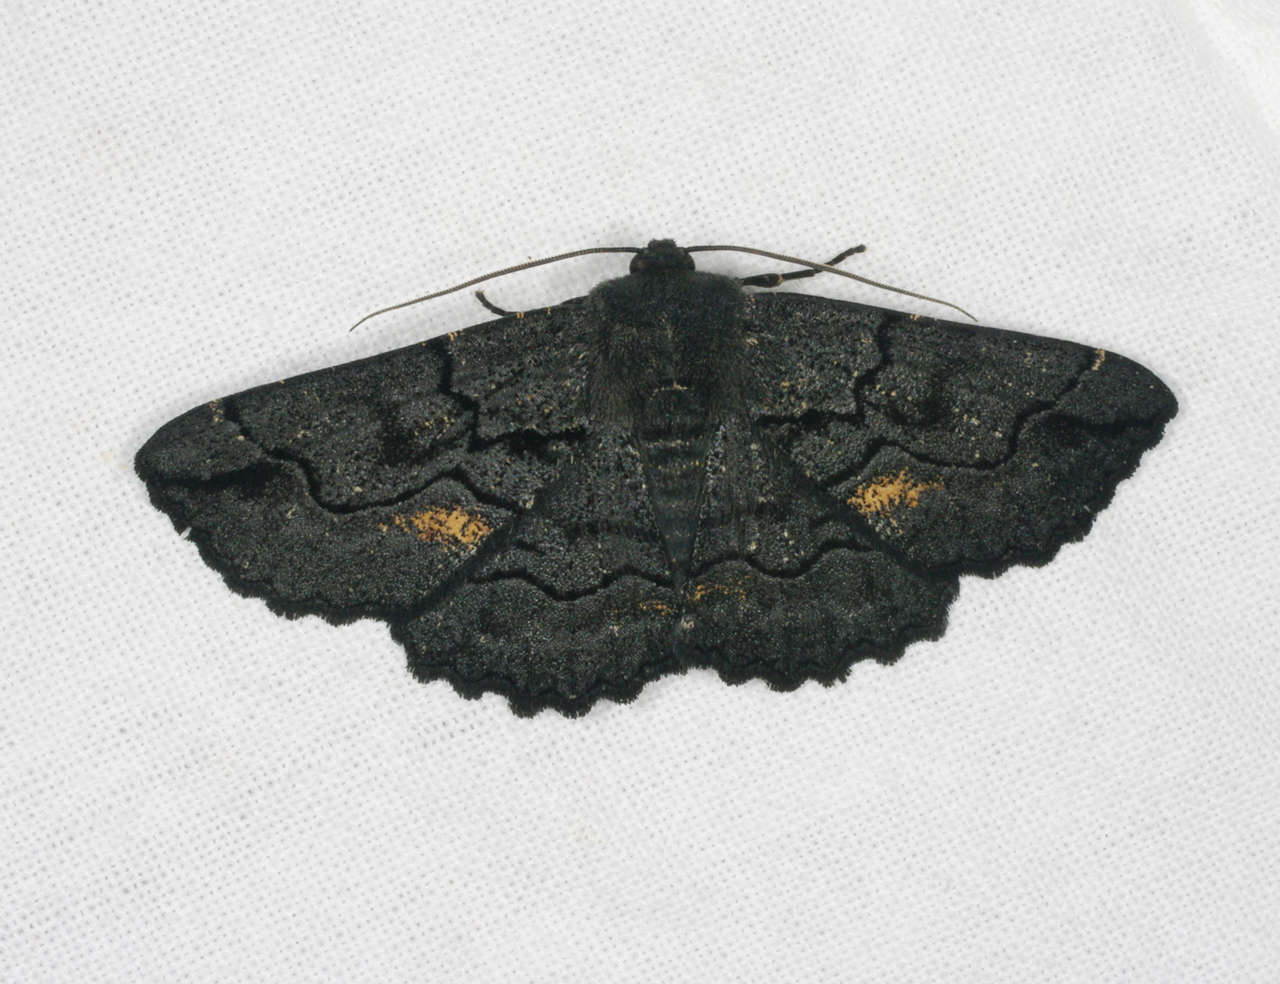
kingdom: Animalia
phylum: Arthropoda
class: Insecta
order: Lepidoptera
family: Geometridae
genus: Melanodes
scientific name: Melanodes anthracitaria
